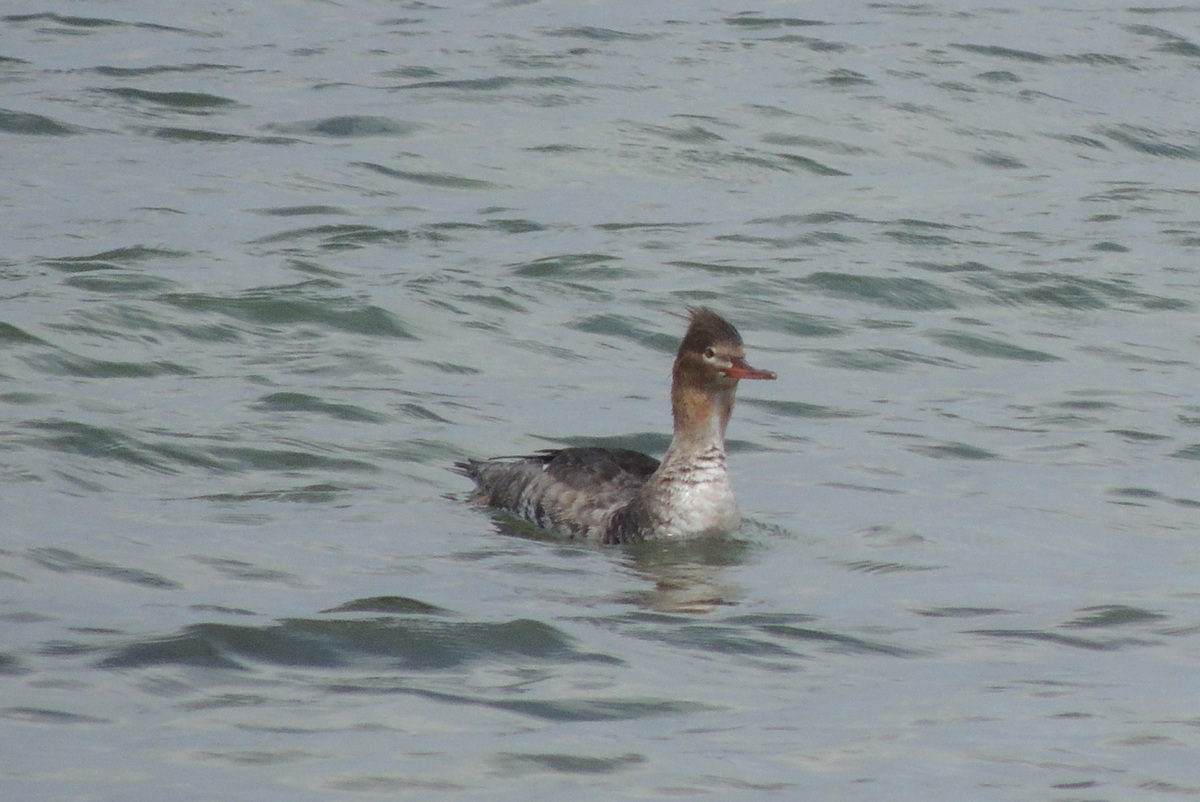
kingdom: Animalia
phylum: Chordata
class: Aves
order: Anseriformes
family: Anatidae
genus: Mergus
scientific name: Mergus serrator
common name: Red-breasted merganser
